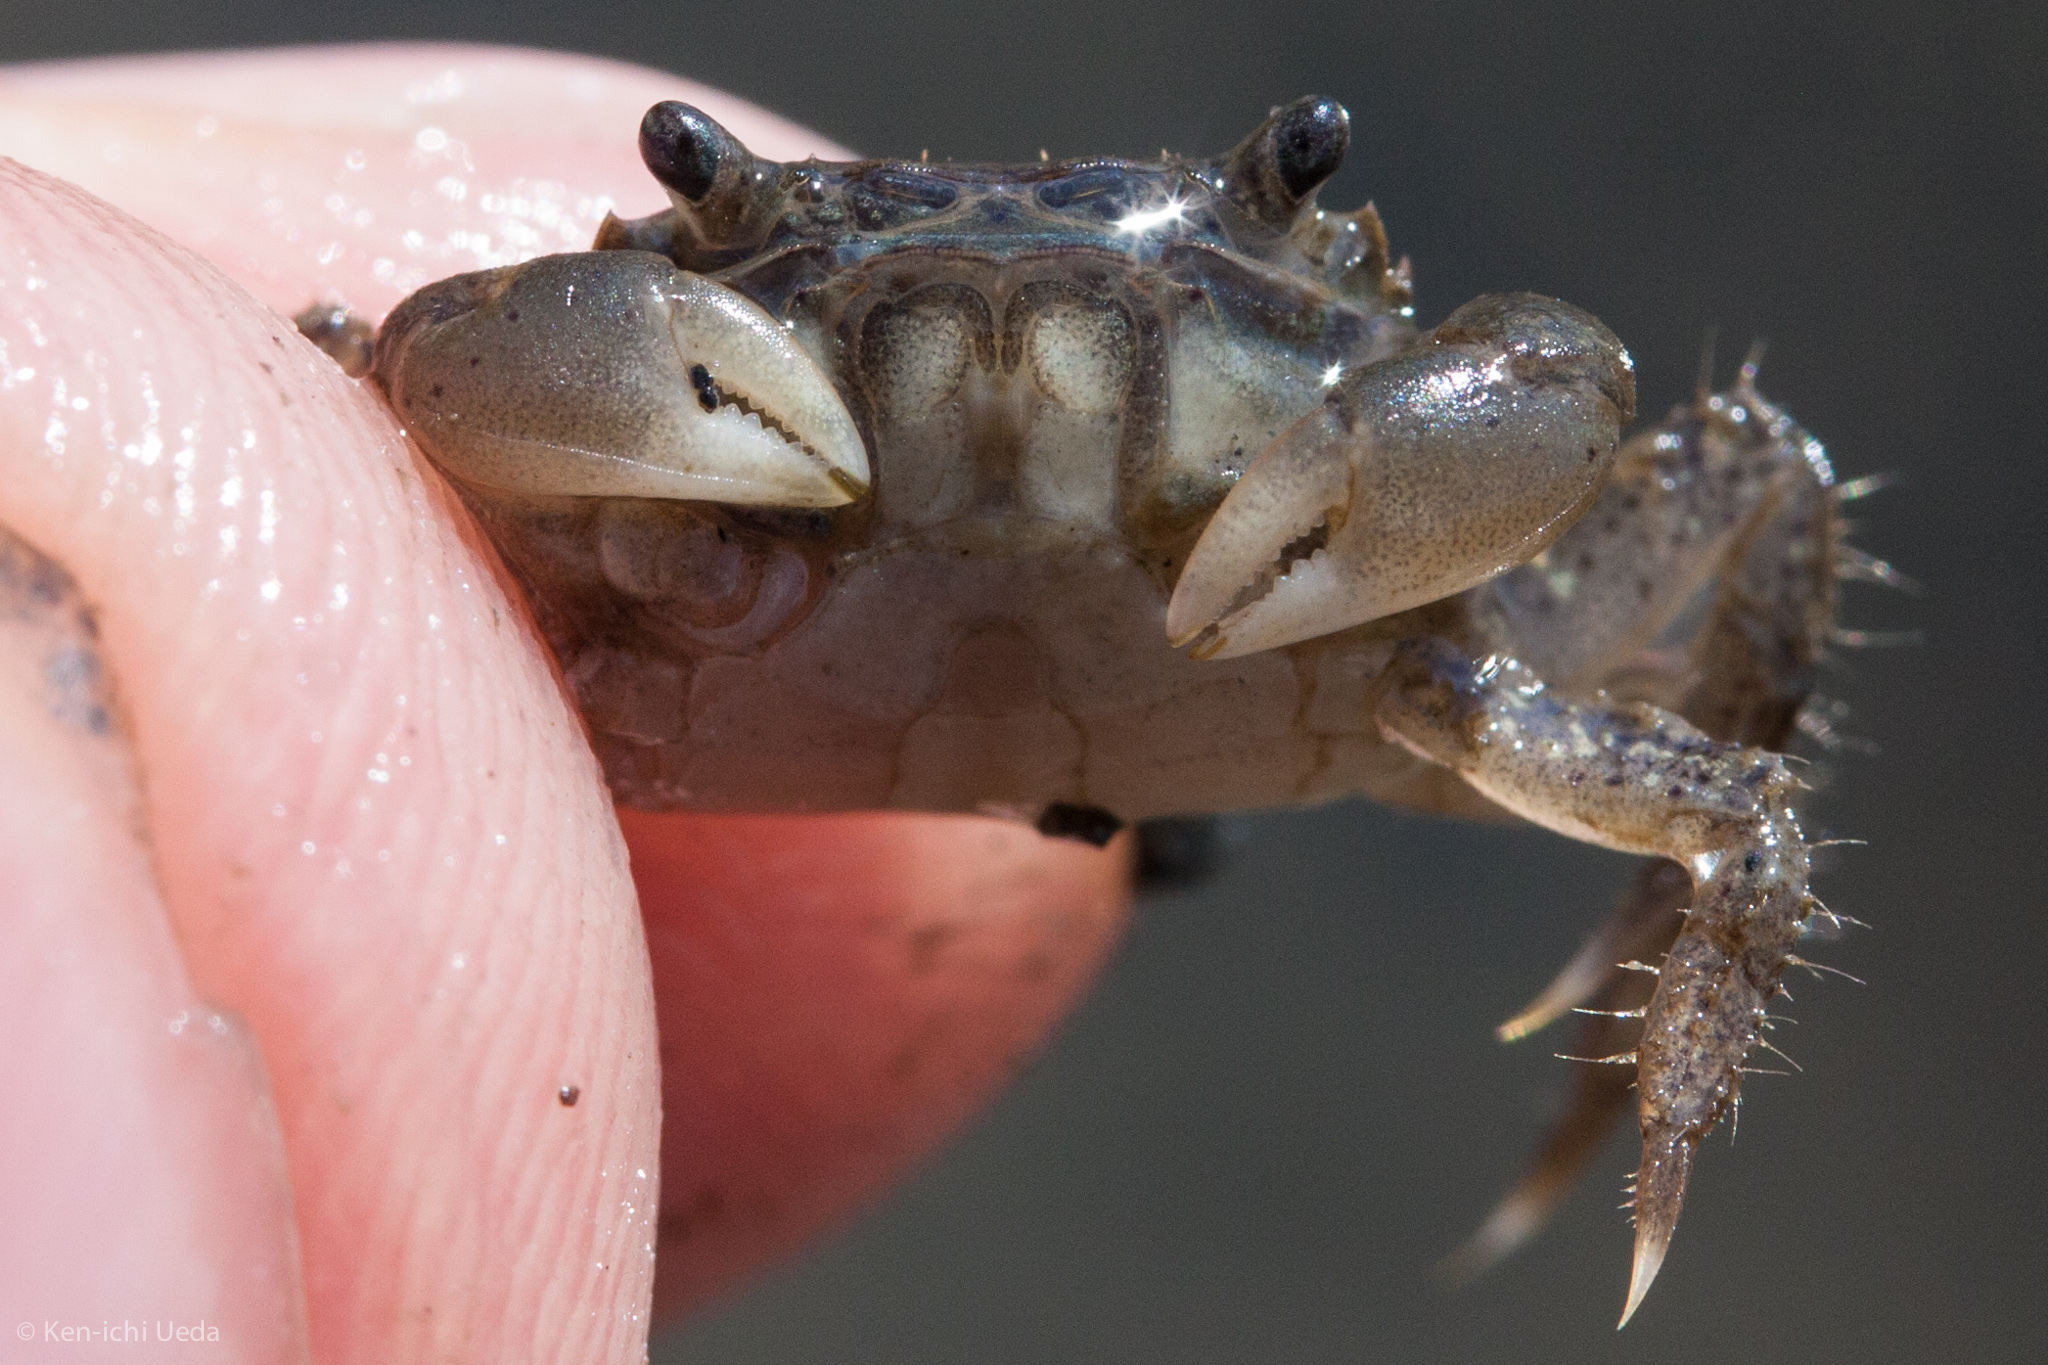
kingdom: Animalia
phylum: Arthropoda
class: Malacostraca
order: Decapoda
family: Varunidae
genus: Hemigrapsus
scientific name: Hemigrapsus oregonensis
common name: Yellow shore crab
